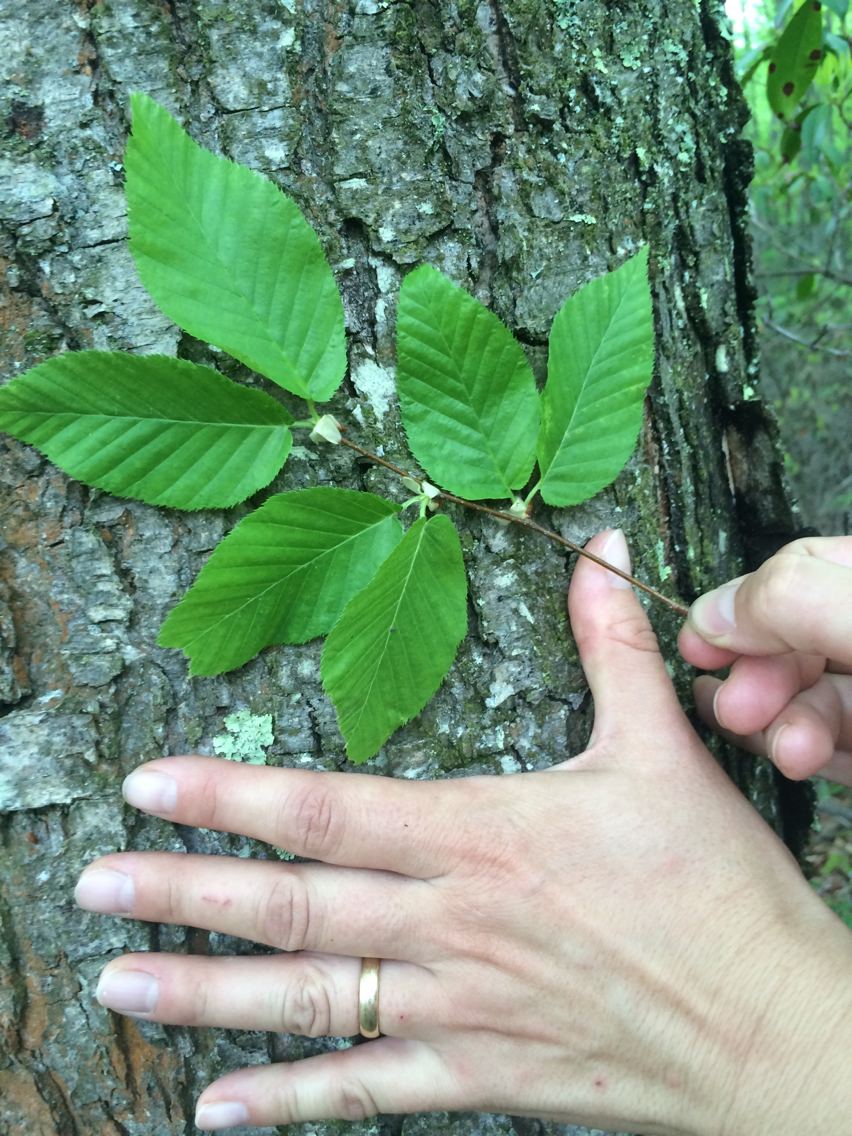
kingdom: Plantae
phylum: Tracheophyta
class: Magnoliopsida
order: Fagales
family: Betulaceae
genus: Betula
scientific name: Betula lenta
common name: Black birch
